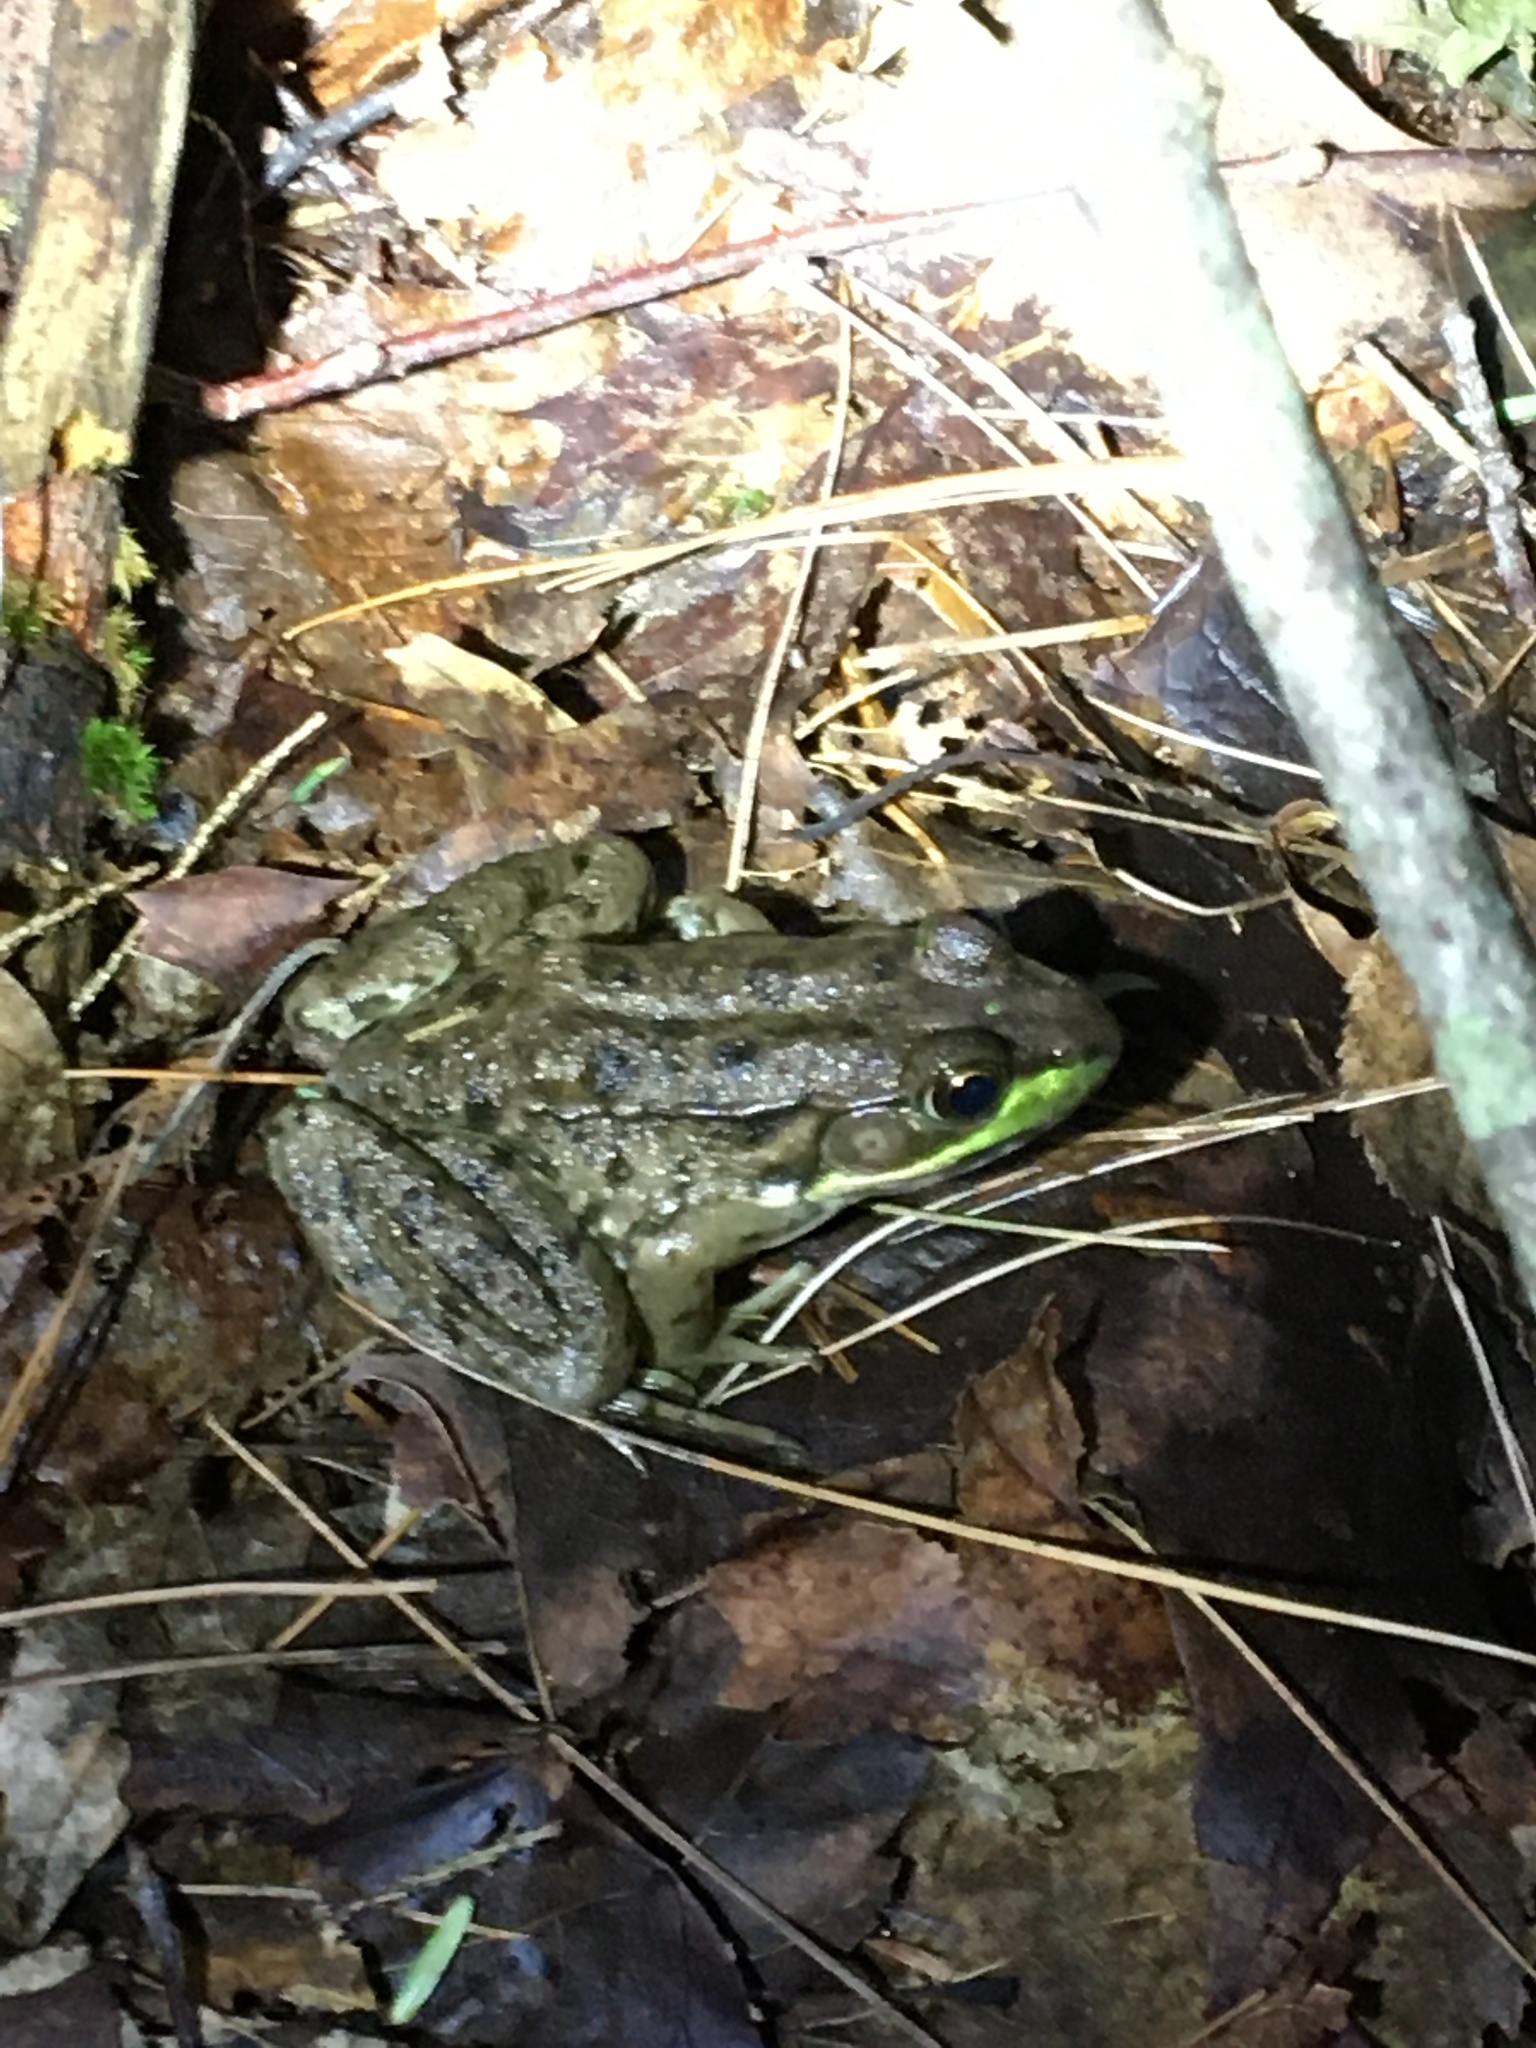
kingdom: Animalia
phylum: Chordata
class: Amphibia
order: Anura
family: Ranidae
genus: Lithobates
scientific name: Lithobates clamitans
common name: Green frog
